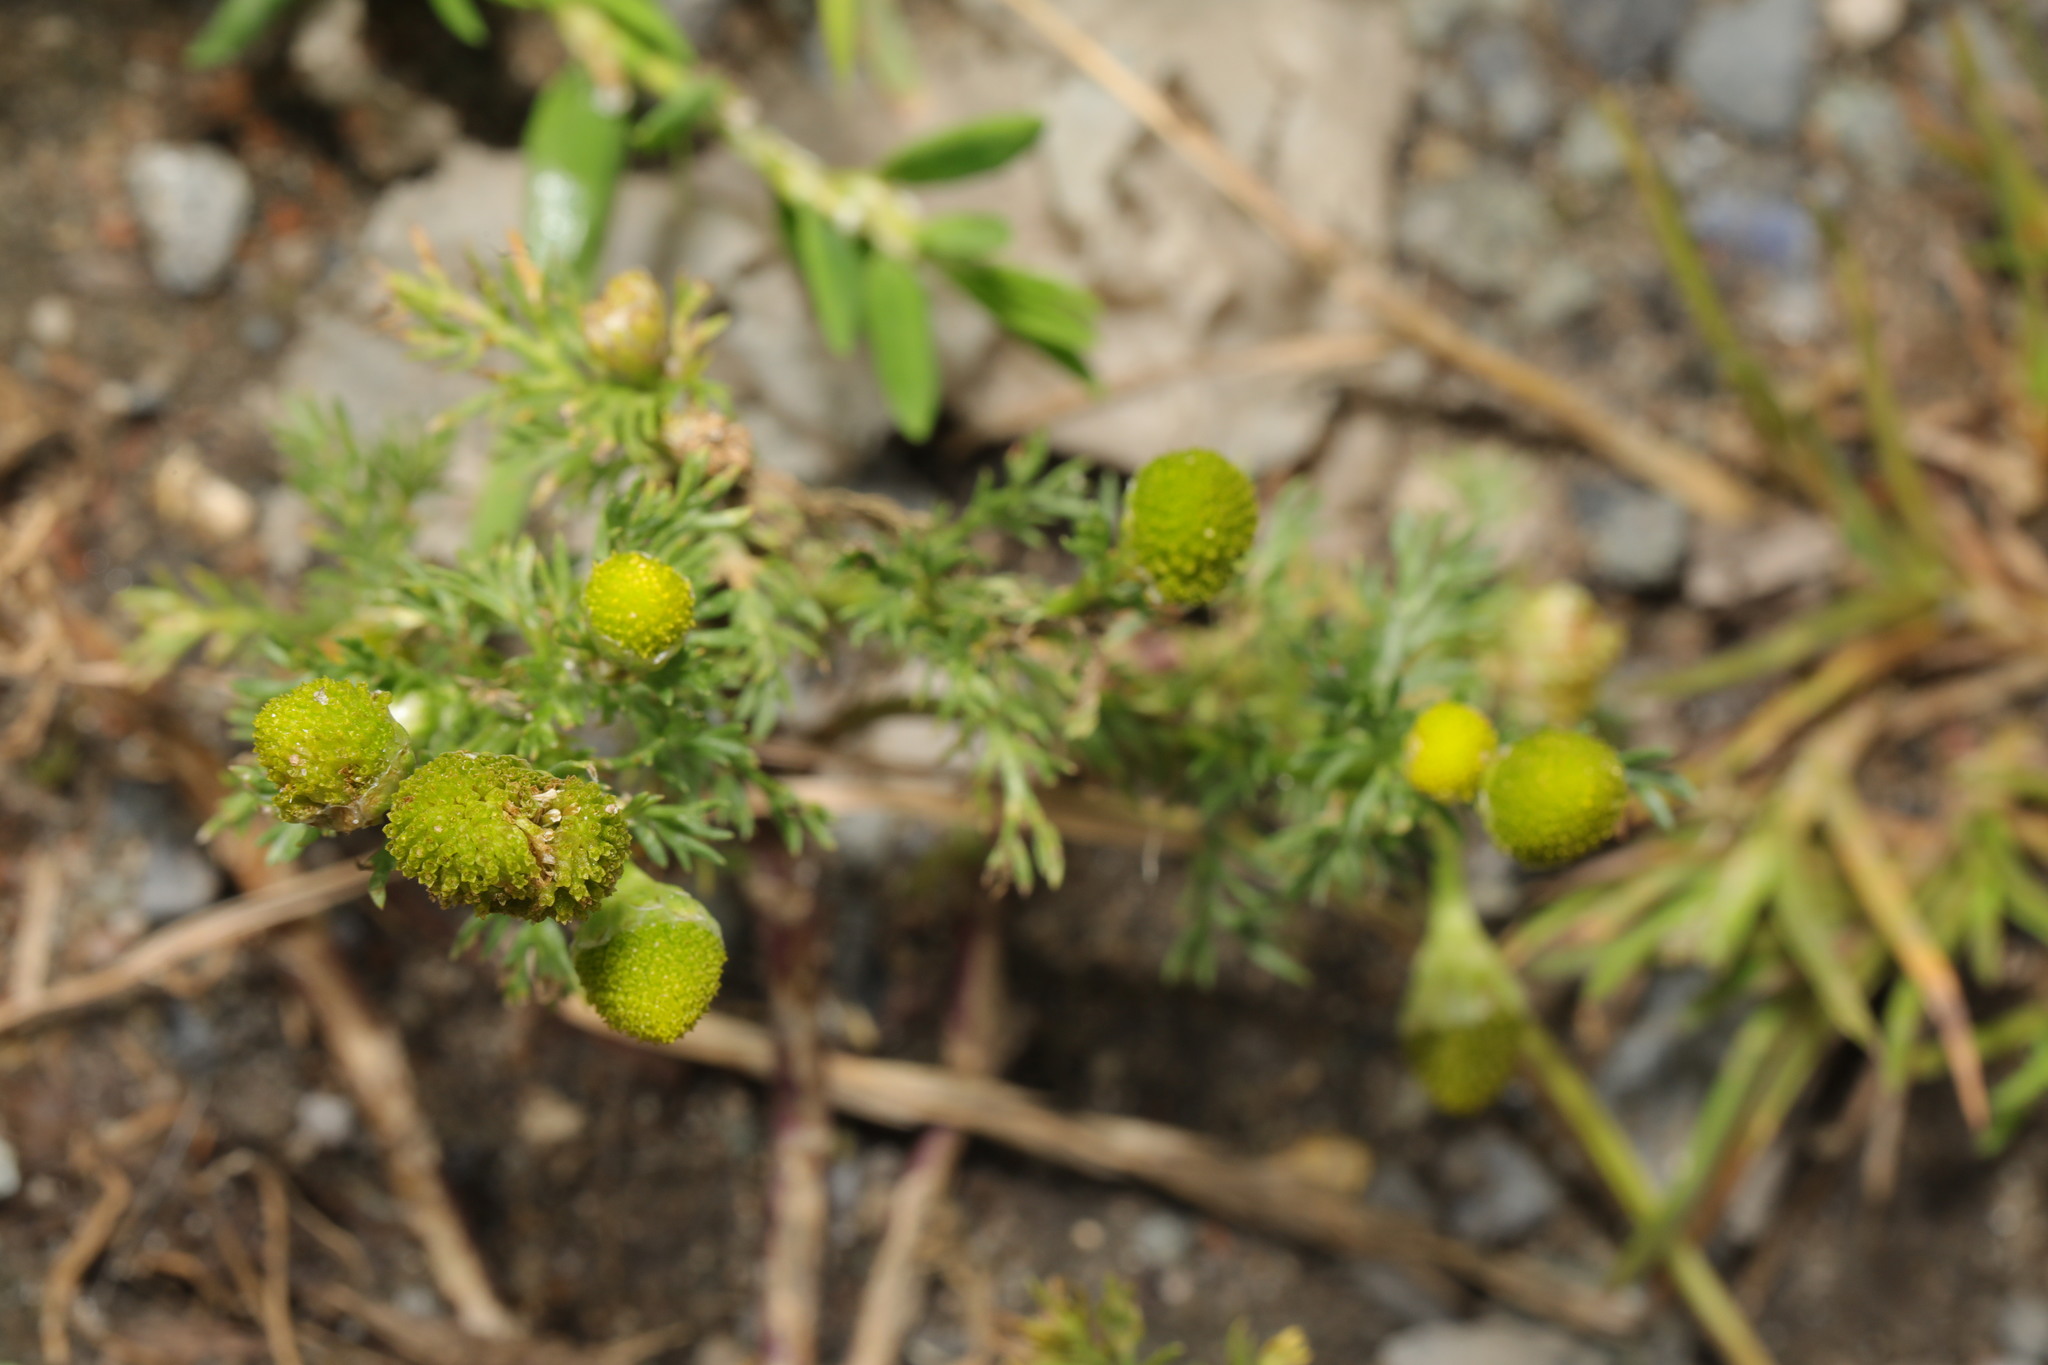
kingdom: Plantae
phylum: Tracheophyta
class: Magnoliopsida
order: Asterales
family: Asteraceae
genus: Matricaria
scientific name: Matricaria discoidea
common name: Disc mayweed
